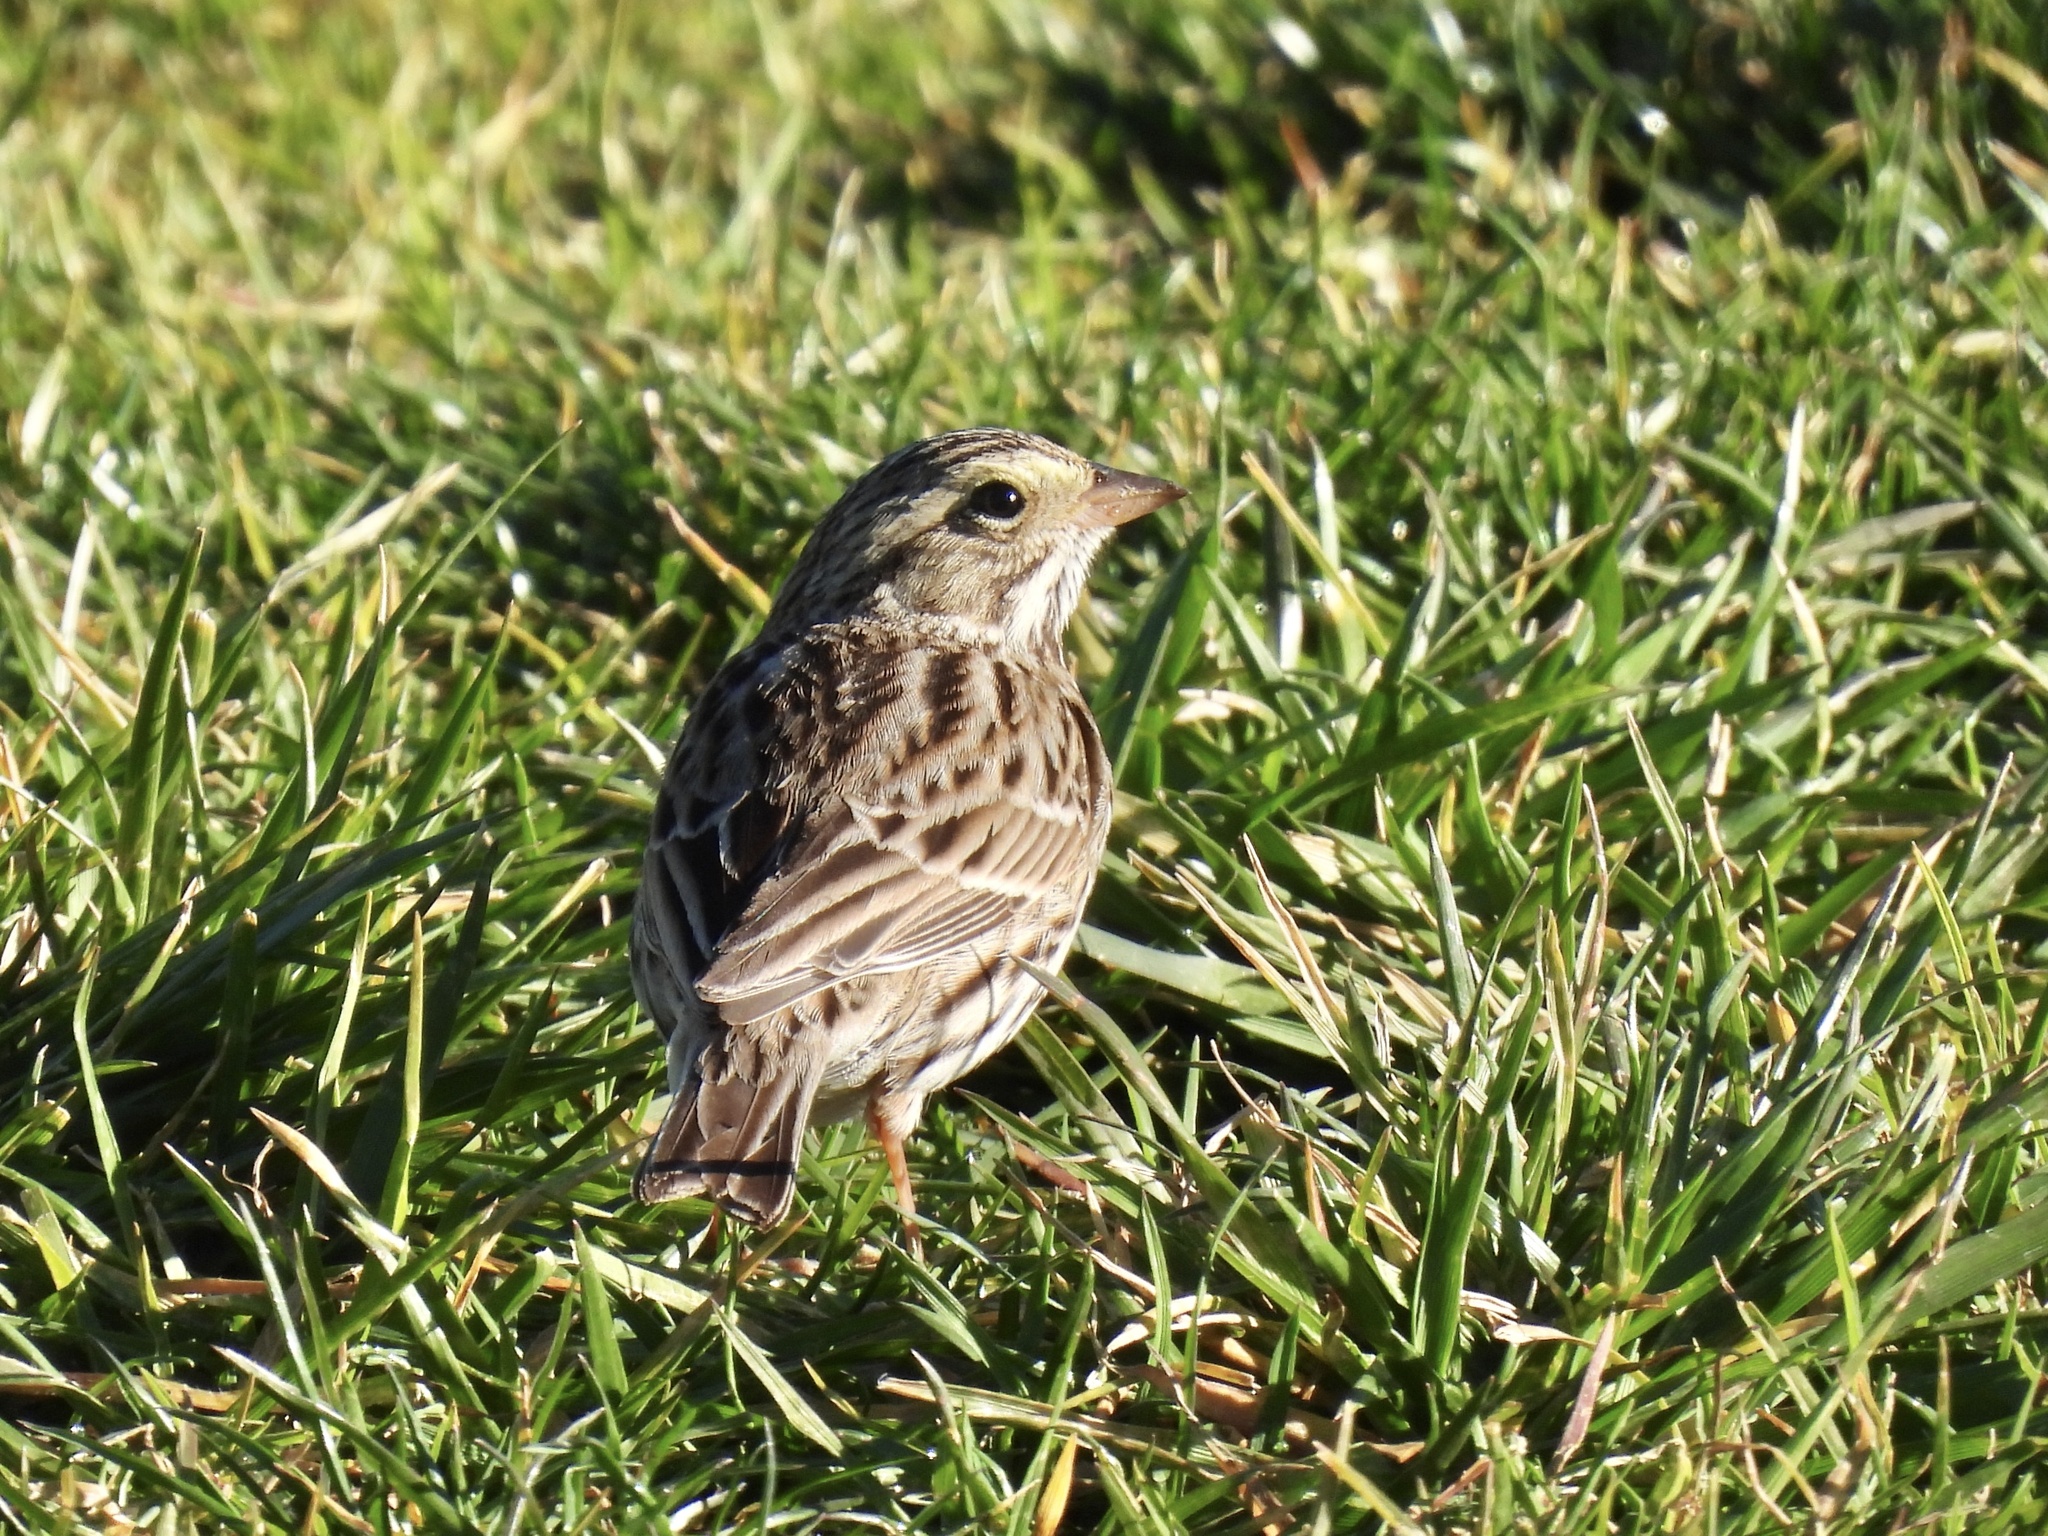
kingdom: Animalia
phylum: Chordata
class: Aves
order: Passeriformes
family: Passerellidae
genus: Passerculus
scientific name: Passerculus sandwichensis
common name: Savannah sparrow
